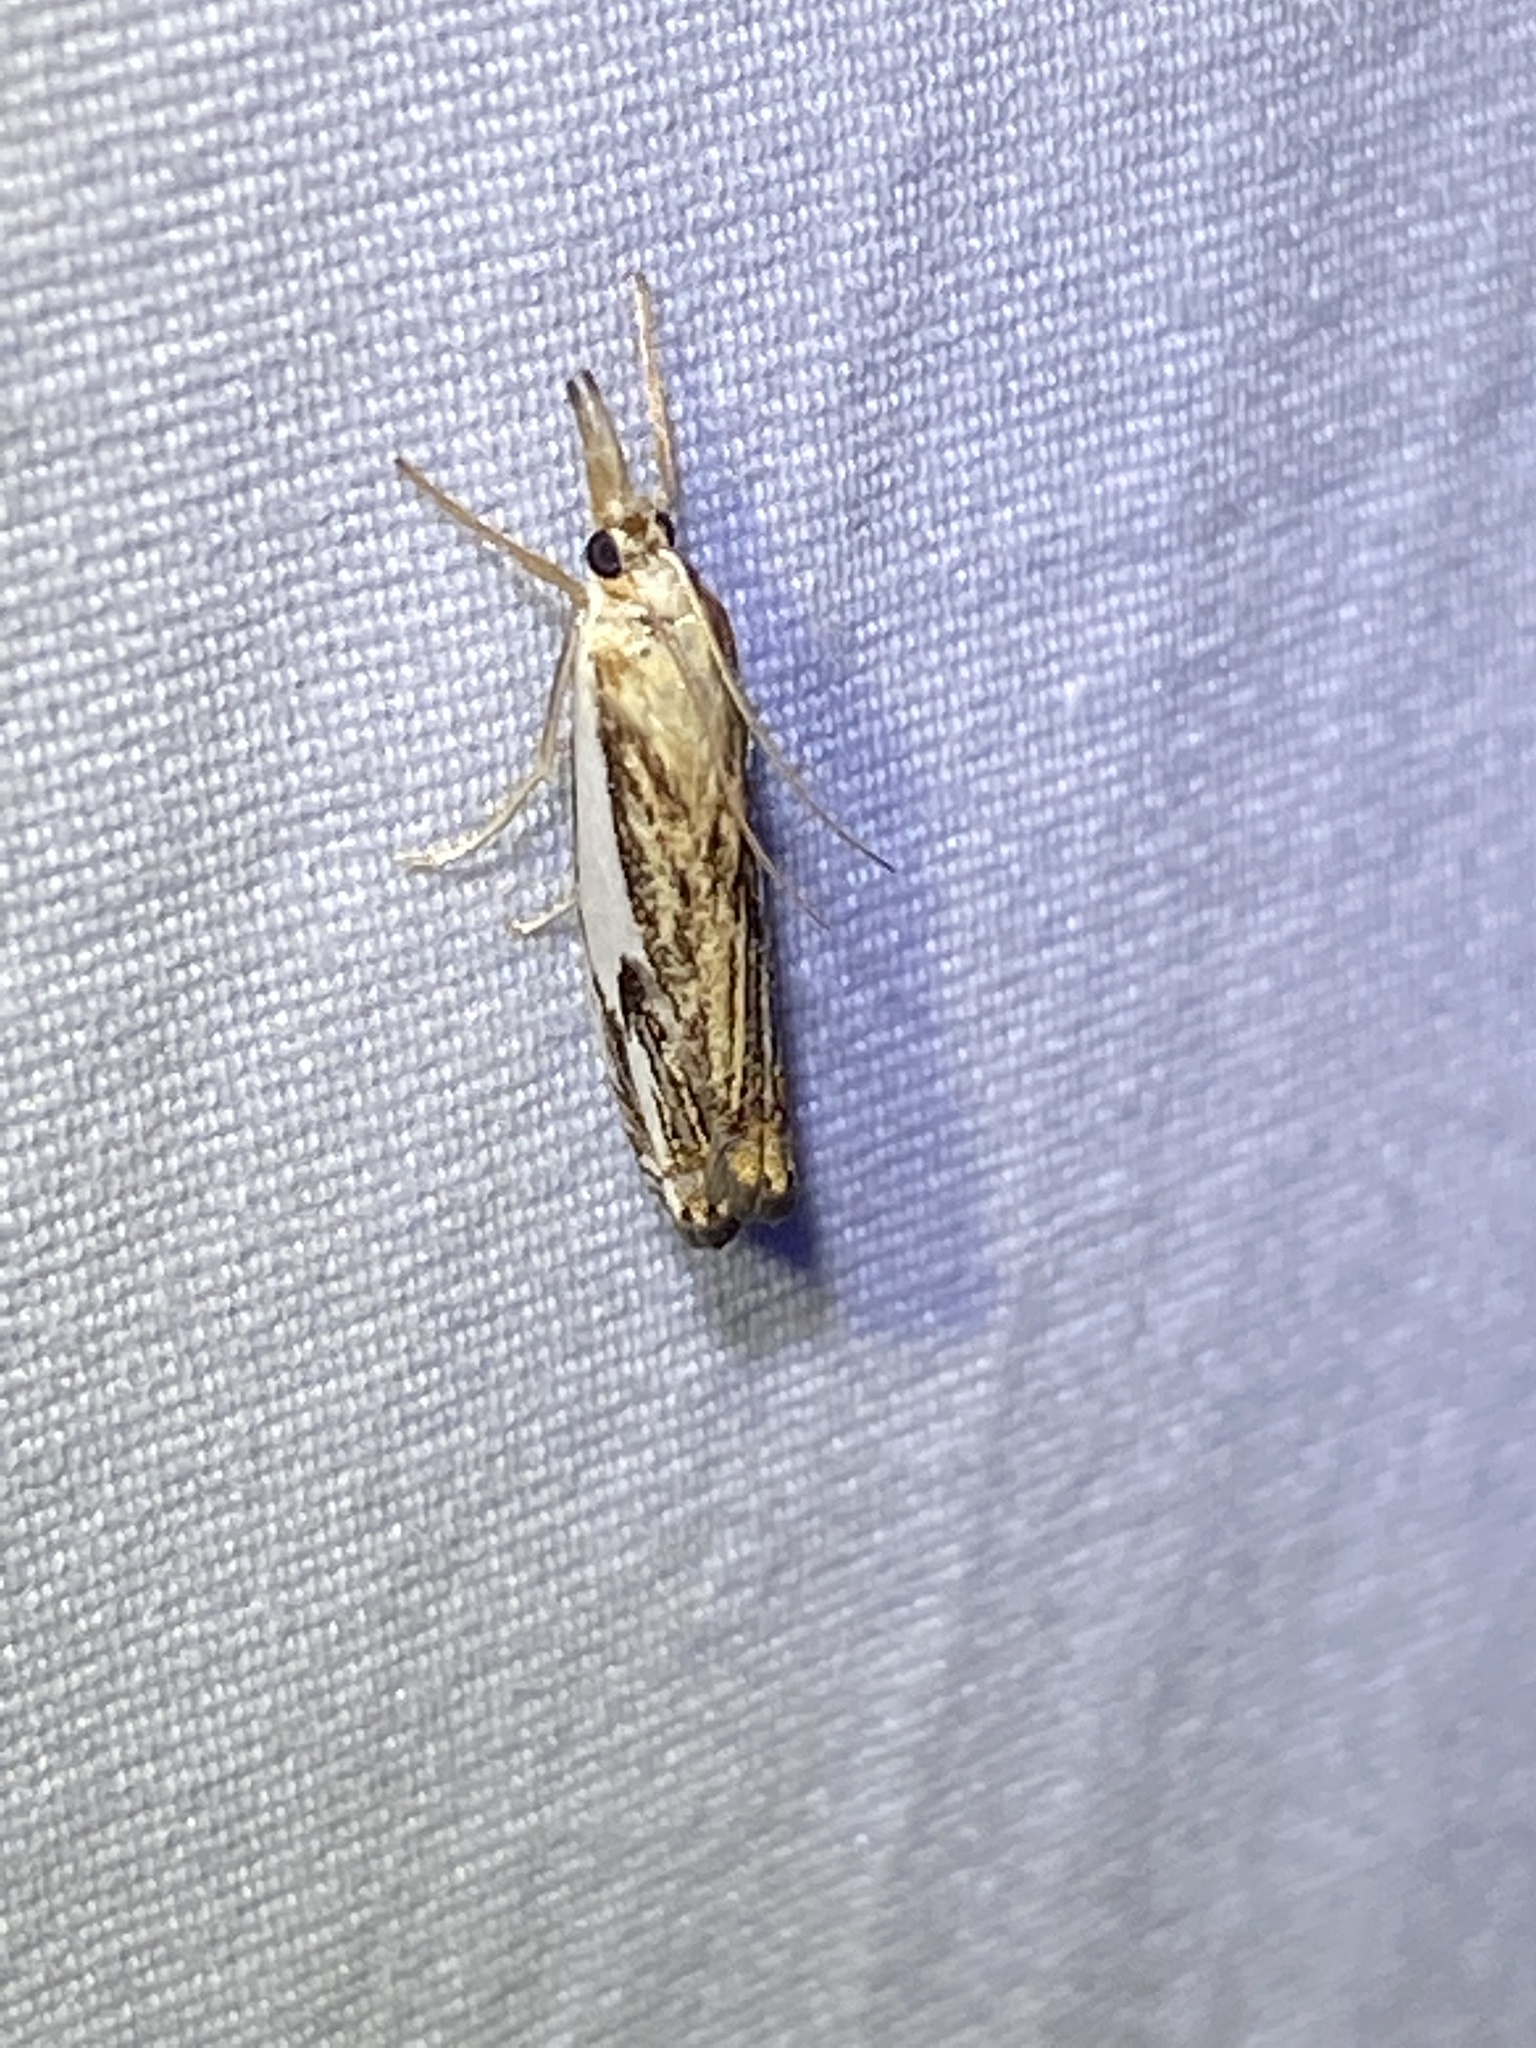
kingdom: Animalia
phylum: Arthropoda
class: Insecta
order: Lepidoptera
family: Crambidae
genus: Crambus
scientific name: Crambus agitatellus
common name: Double-banded grass-veneer
